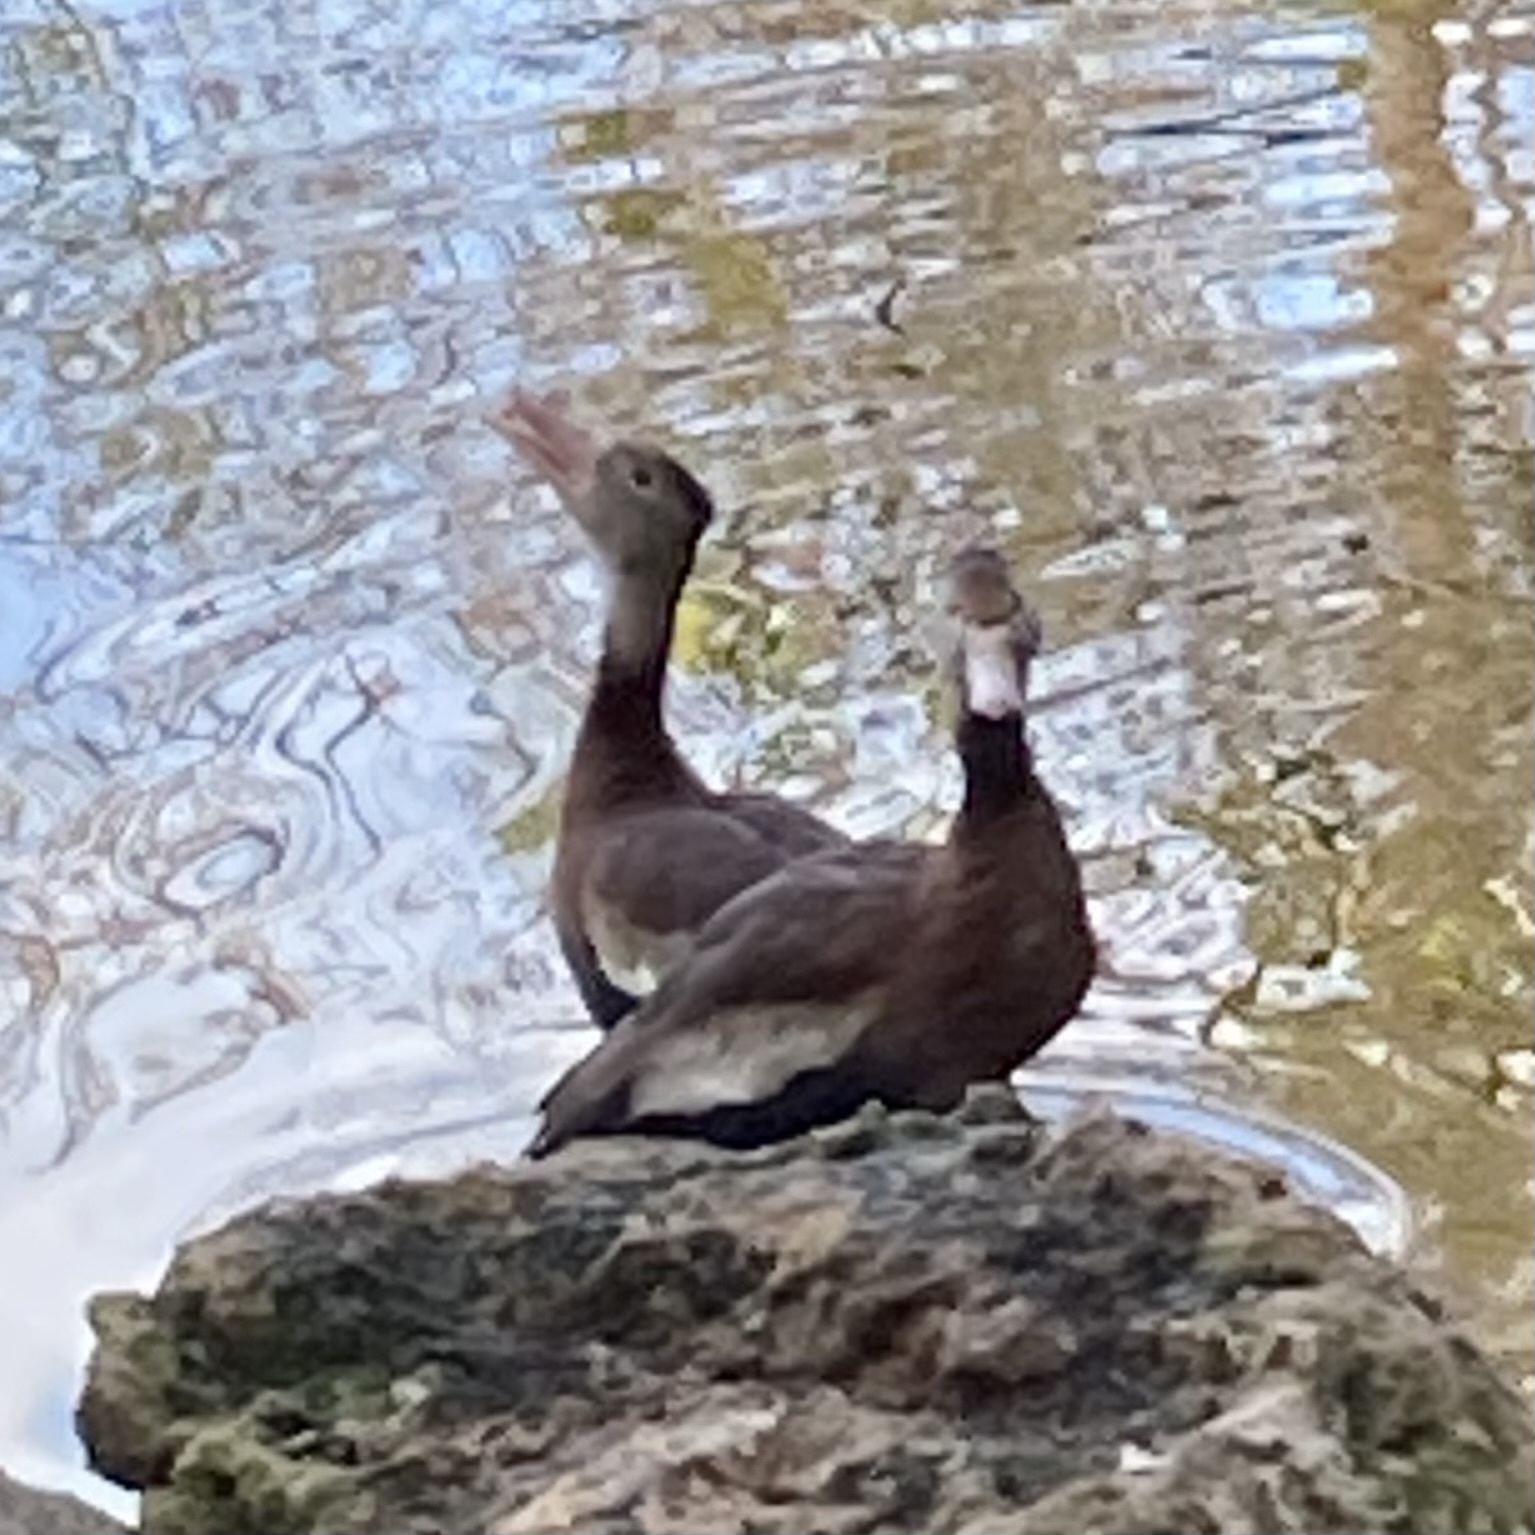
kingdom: Animalia
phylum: Chordata
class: Aves
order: Anseriformes
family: Anatidae
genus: Dendrocygna
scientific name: Dendrocygna autumnalis
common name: Black-bellied whistling duck
